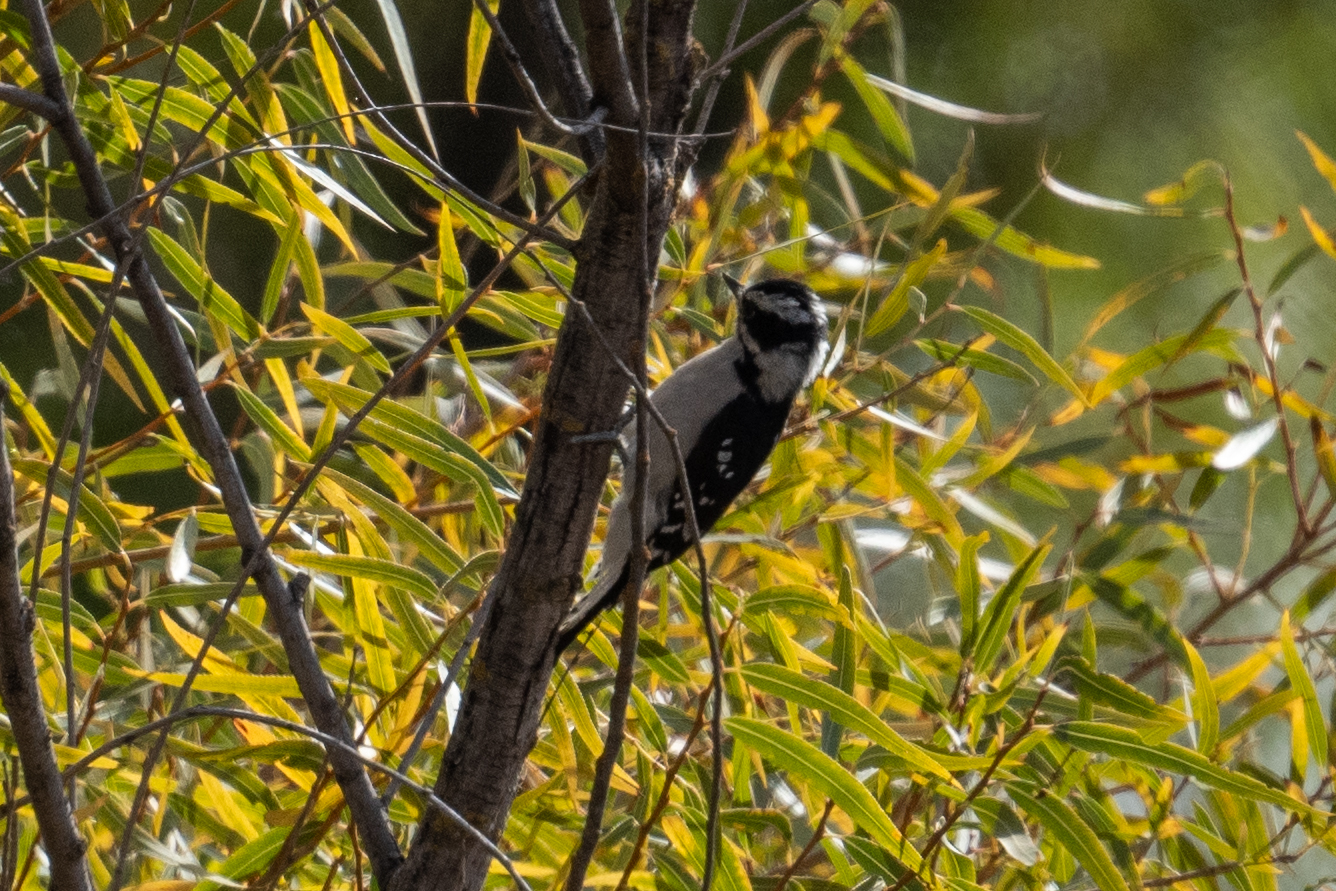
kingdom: Animalia
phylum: Chordata
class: Aves
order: Piciformes
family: Picidae
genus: Dryobates
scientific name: Dryobates pubescens
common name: Downy woodpecker
